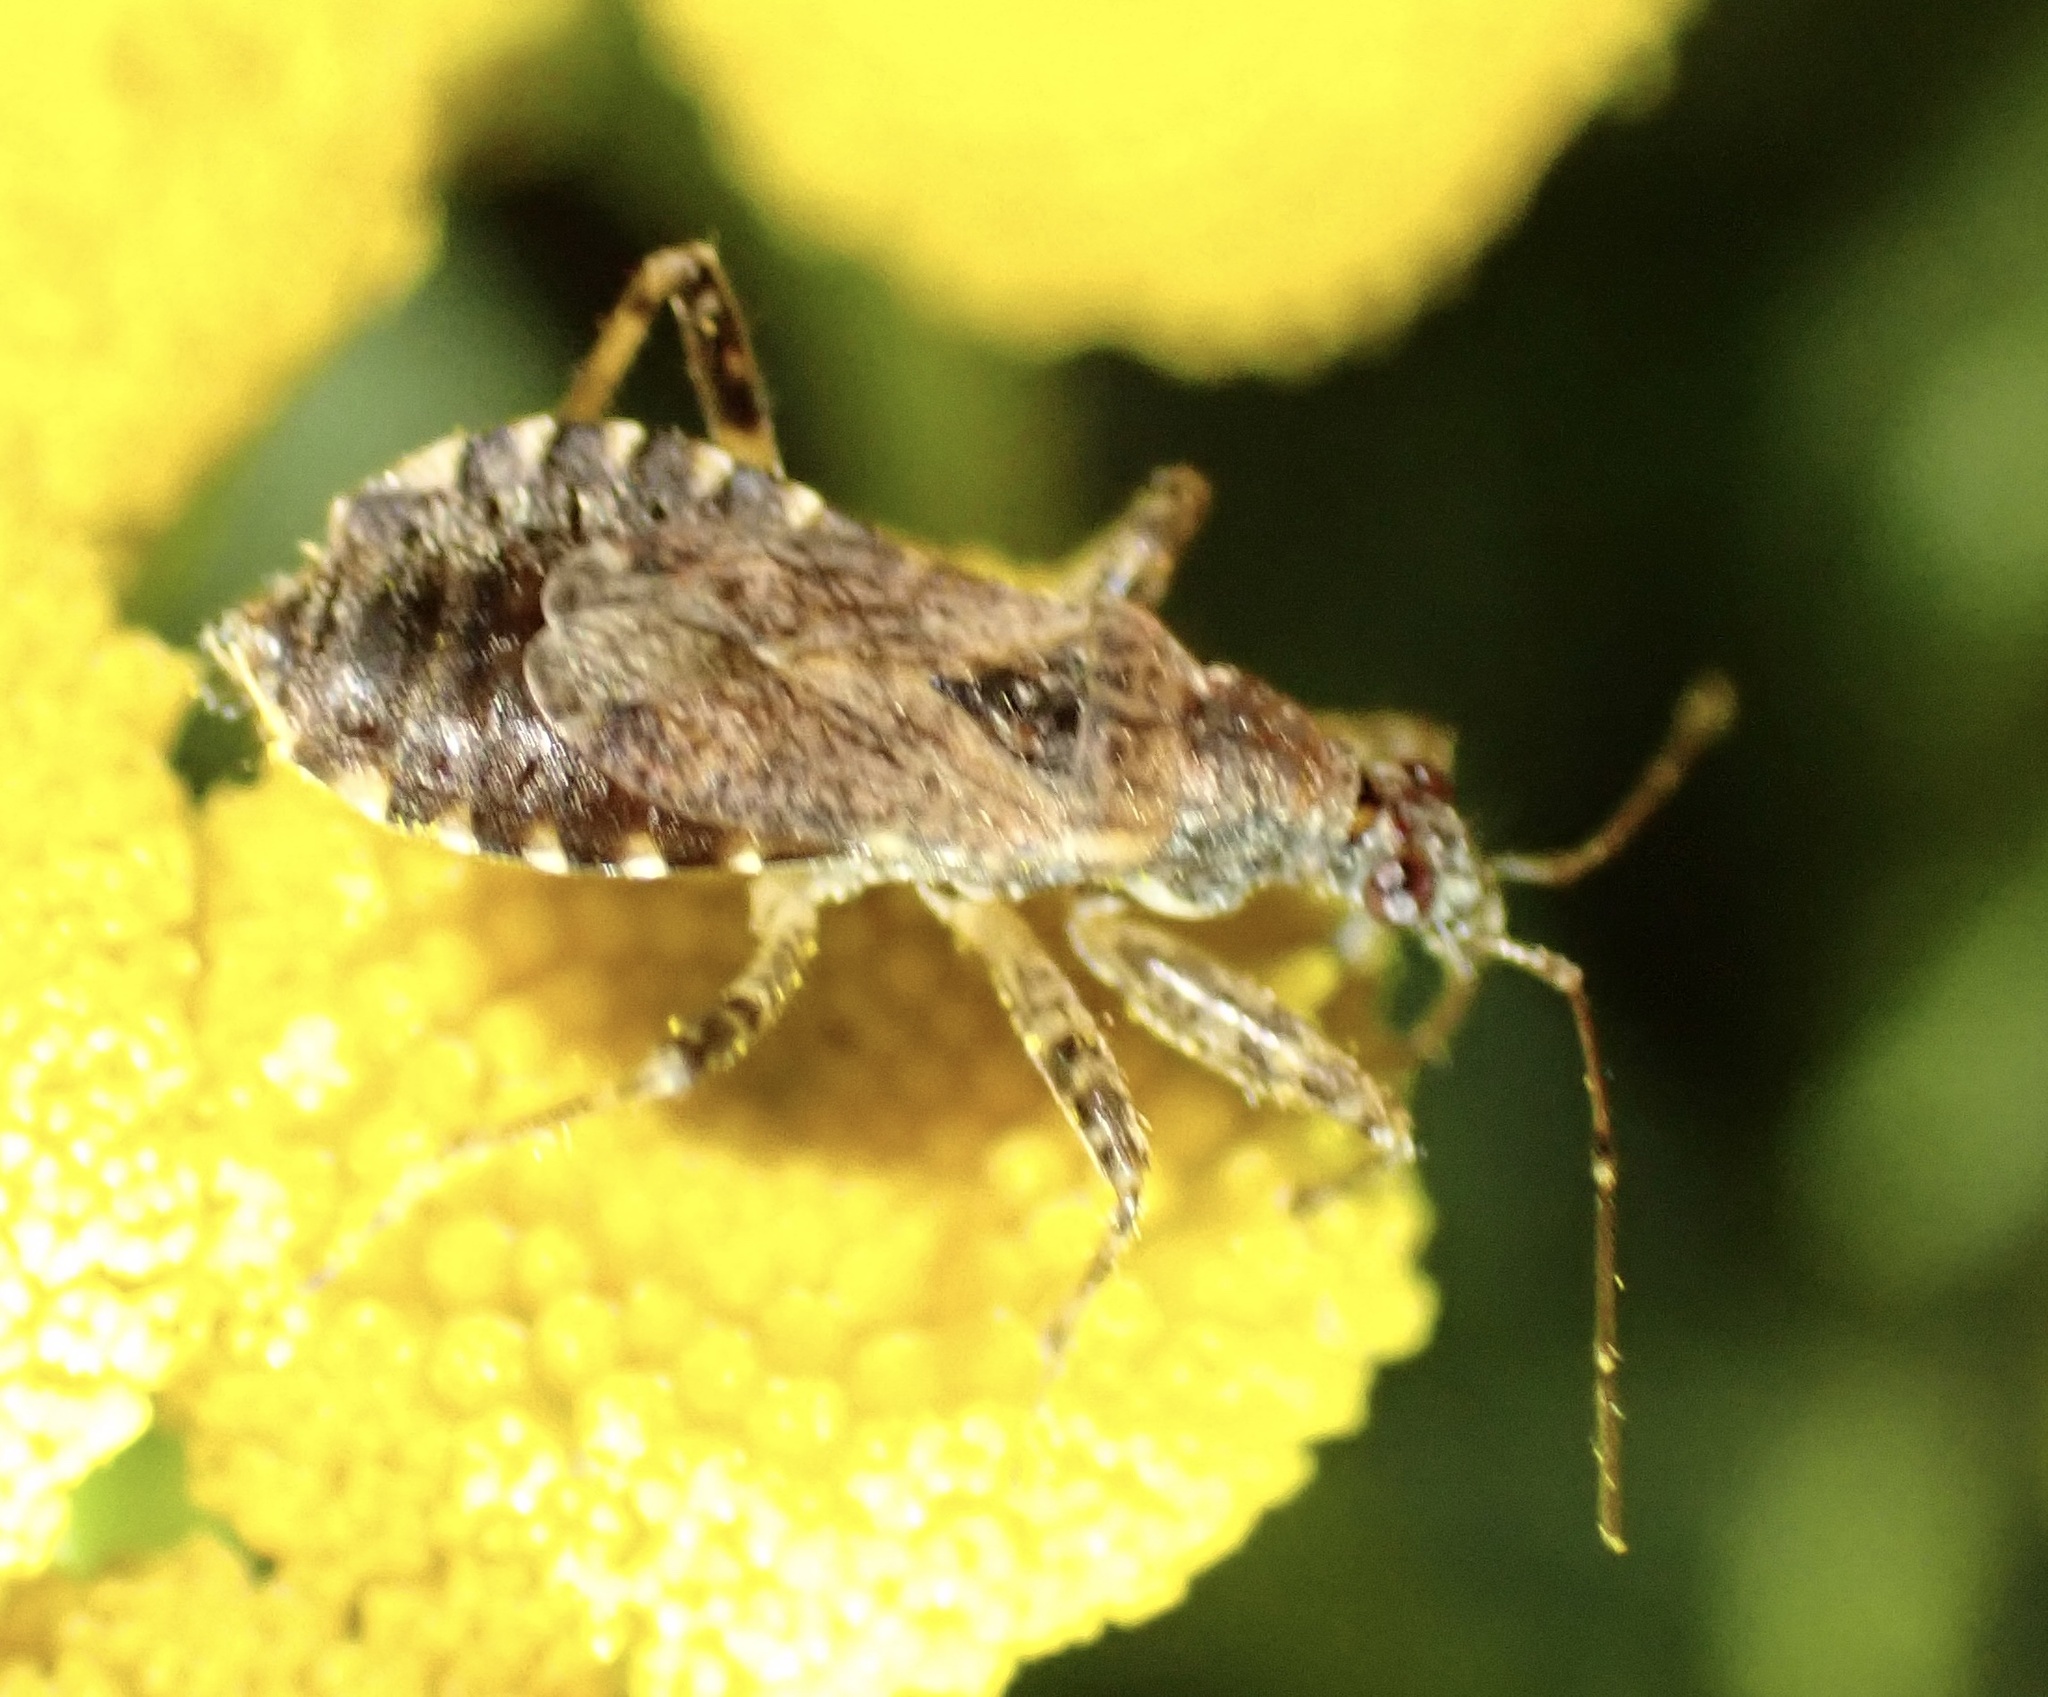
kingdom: Animalia
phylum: Arthropoda
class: Insecta
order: Hemiptera
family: Nabidae
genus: Himacerus
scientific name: Himacerus mirmicoides
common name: Ant damsel bug
